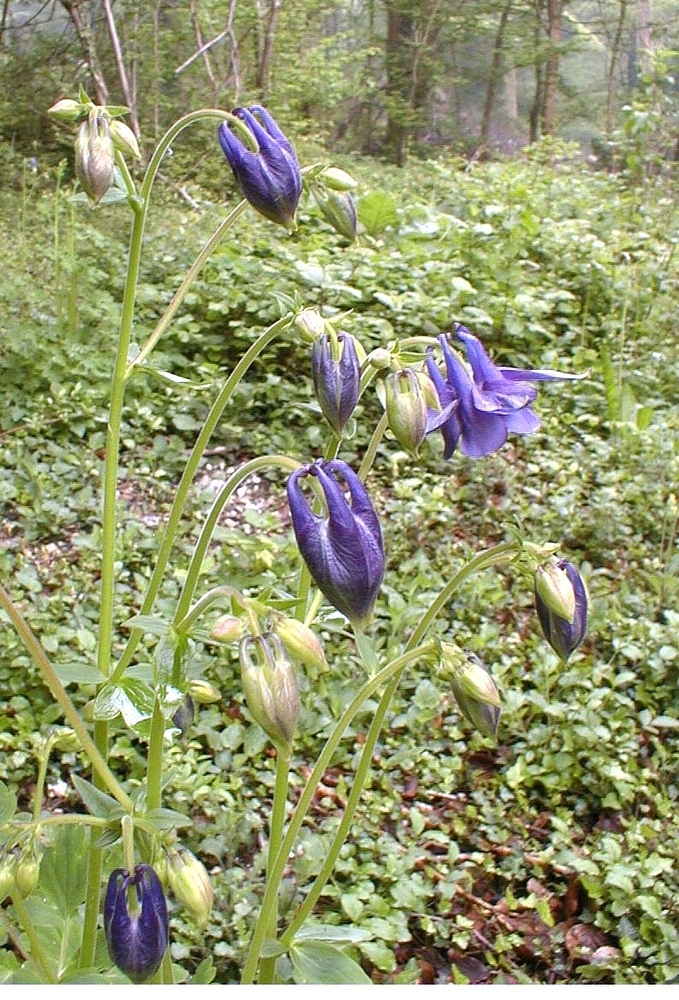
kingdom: Plantae
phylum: Tracheophyta
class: Magnoliopsida
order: Ranunculales
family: Ranunculaceae
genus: Aquilegia
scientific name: Aquilegia vulgaris
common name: Columbine
